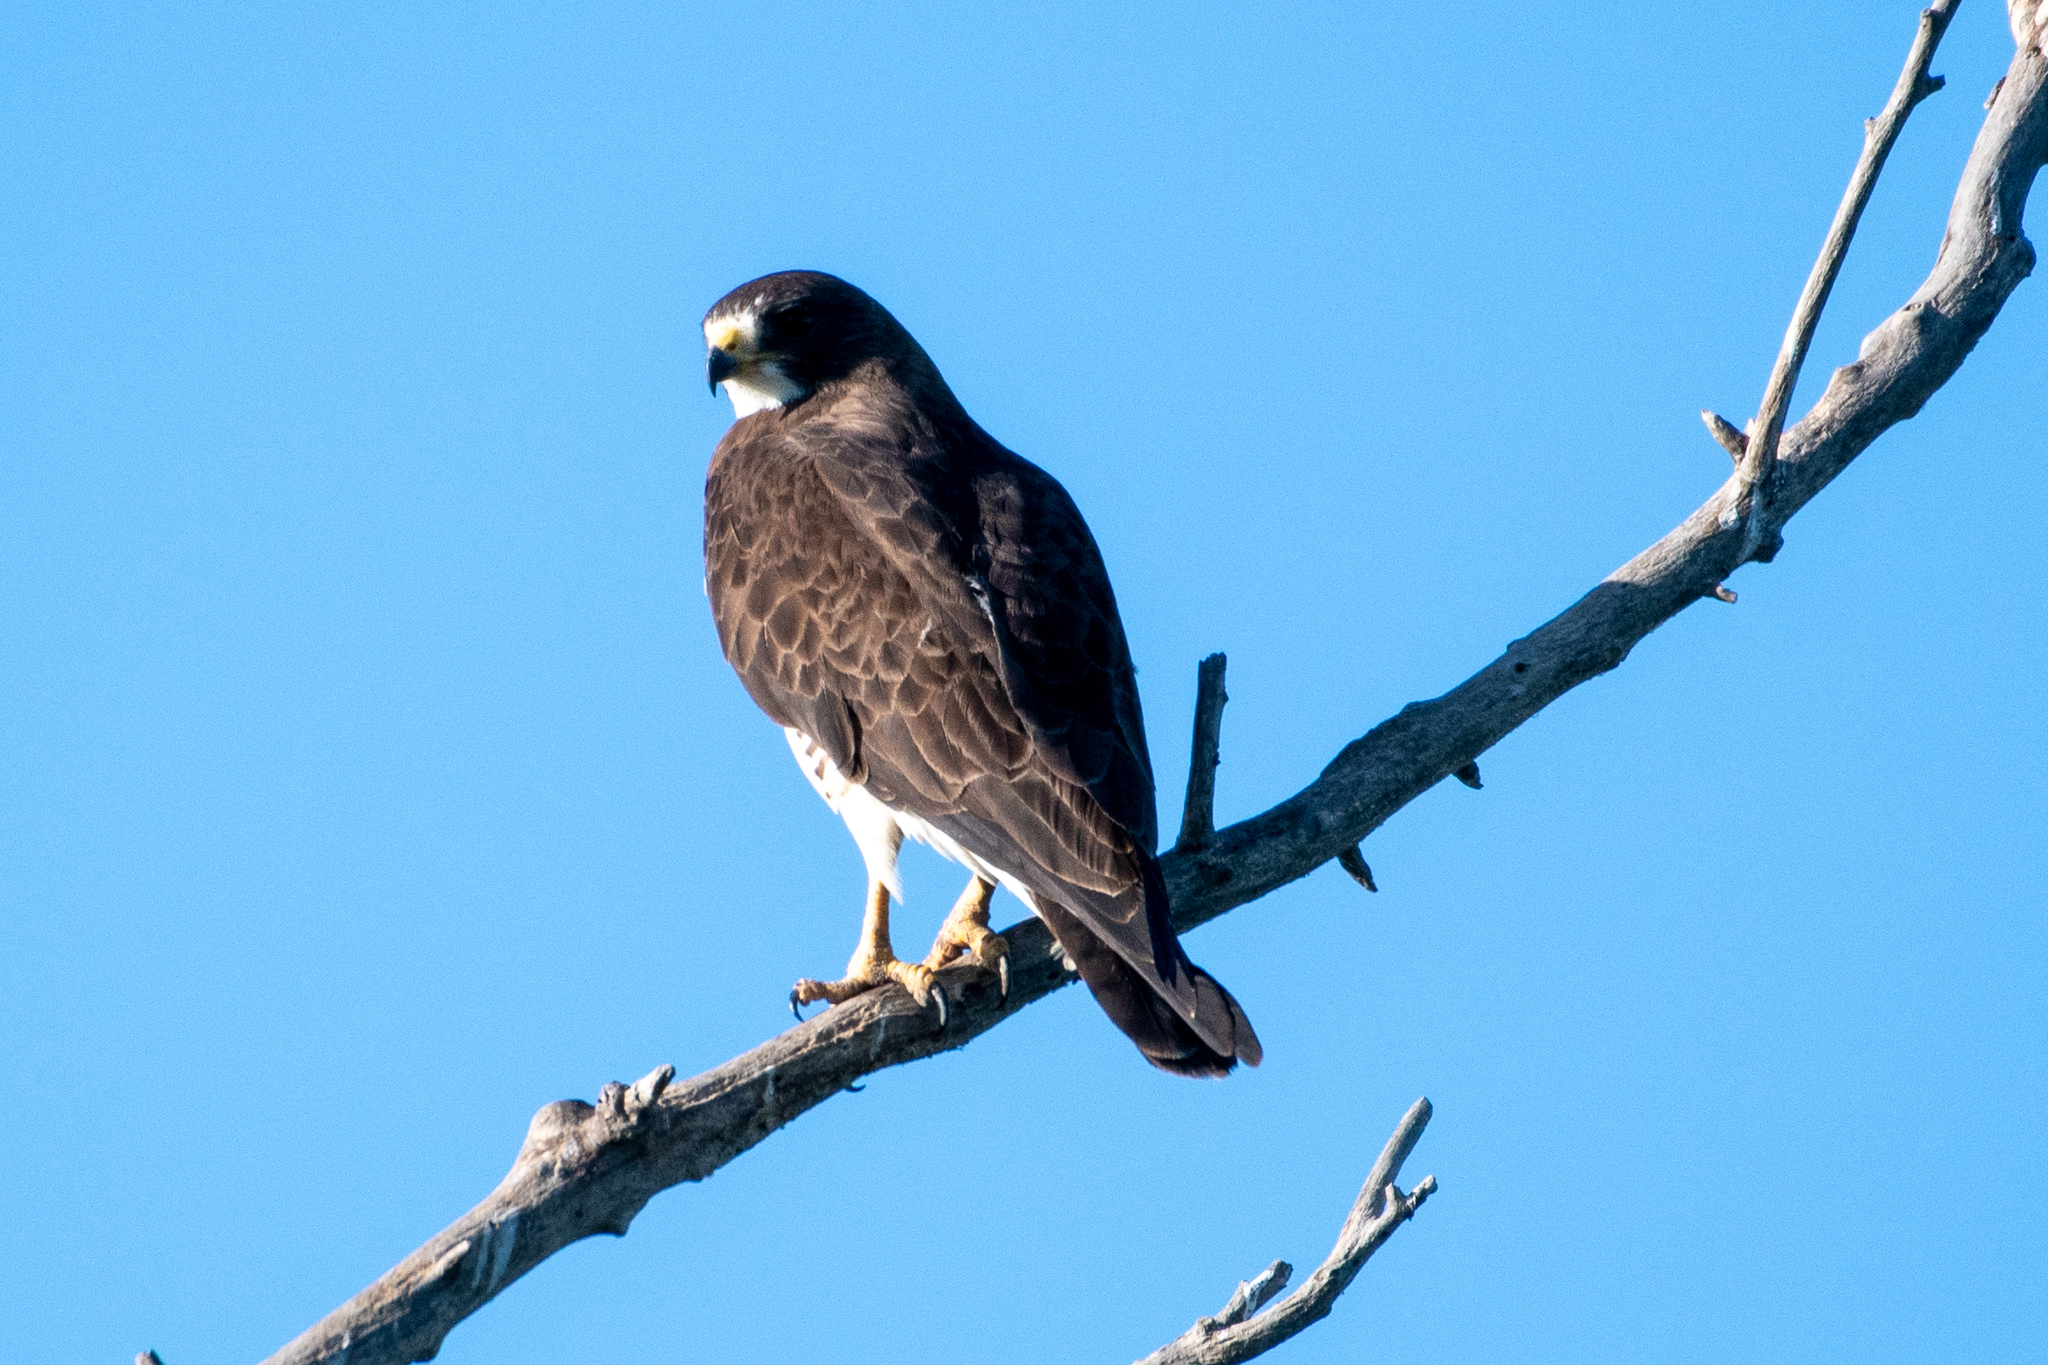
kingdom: Animalia
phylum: Chordata
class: Aves
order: Accipitriformes
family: Accipitridae
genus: Buteo
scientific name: Buteo swainsoni
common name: Swainson's hawk
